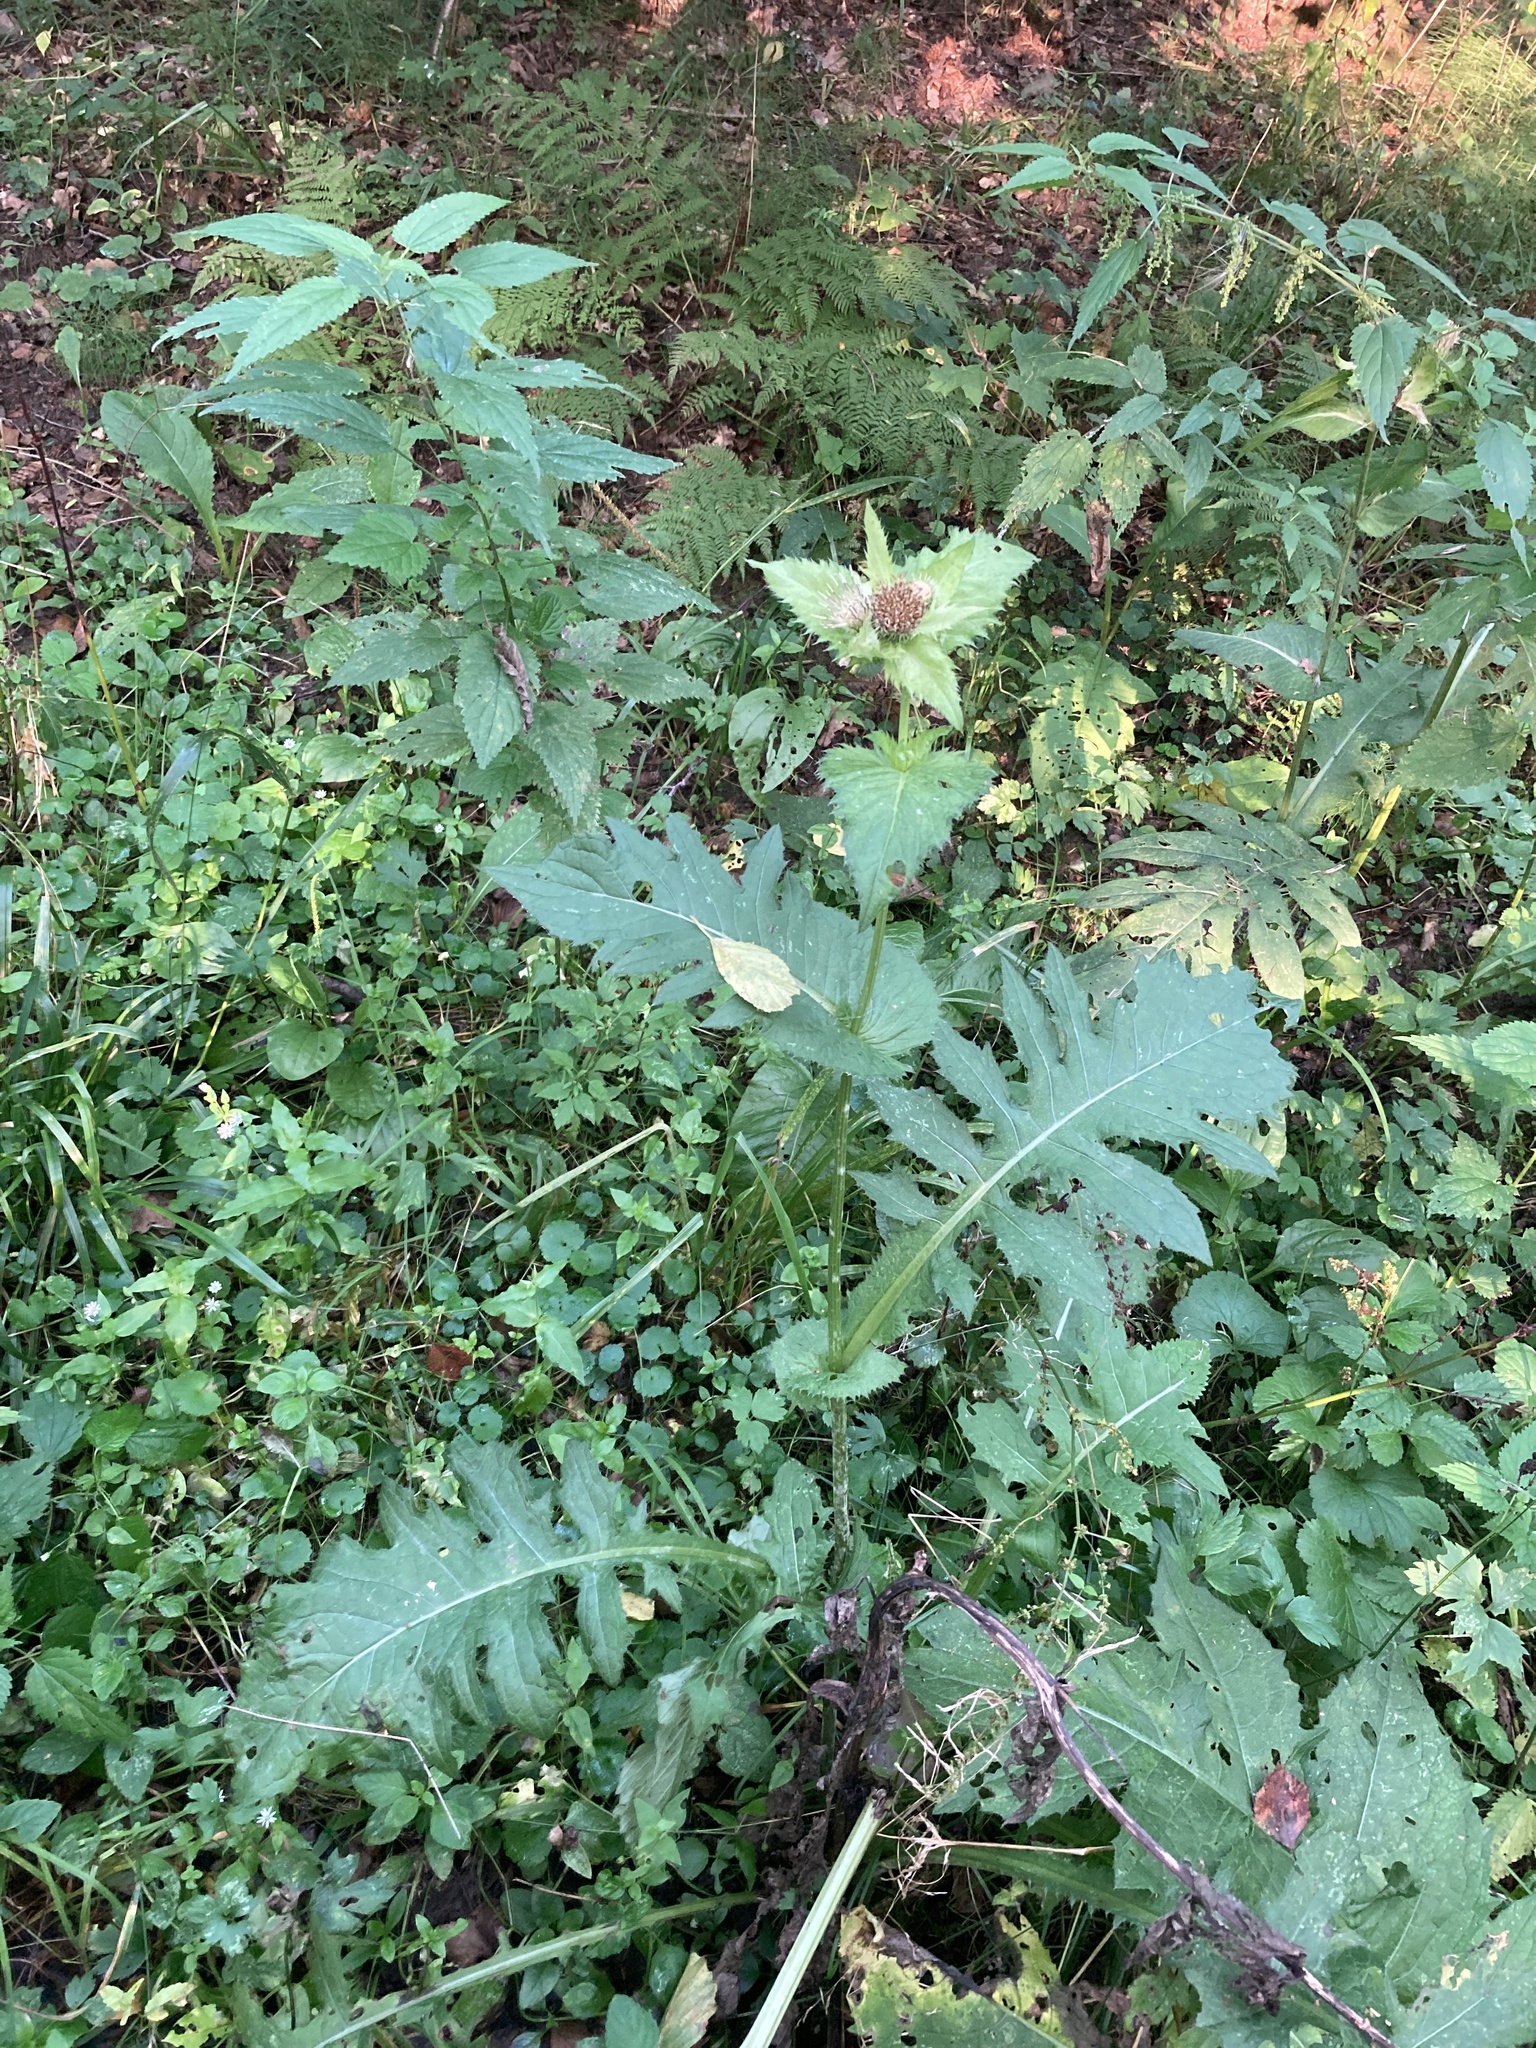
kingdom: Plantae
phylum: Tracheophyta
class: Magnoliopsida
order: Asterales
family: Asteraceae
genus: Cirsium
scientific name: Cirsium oleraceum
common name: Cabbage thistle
